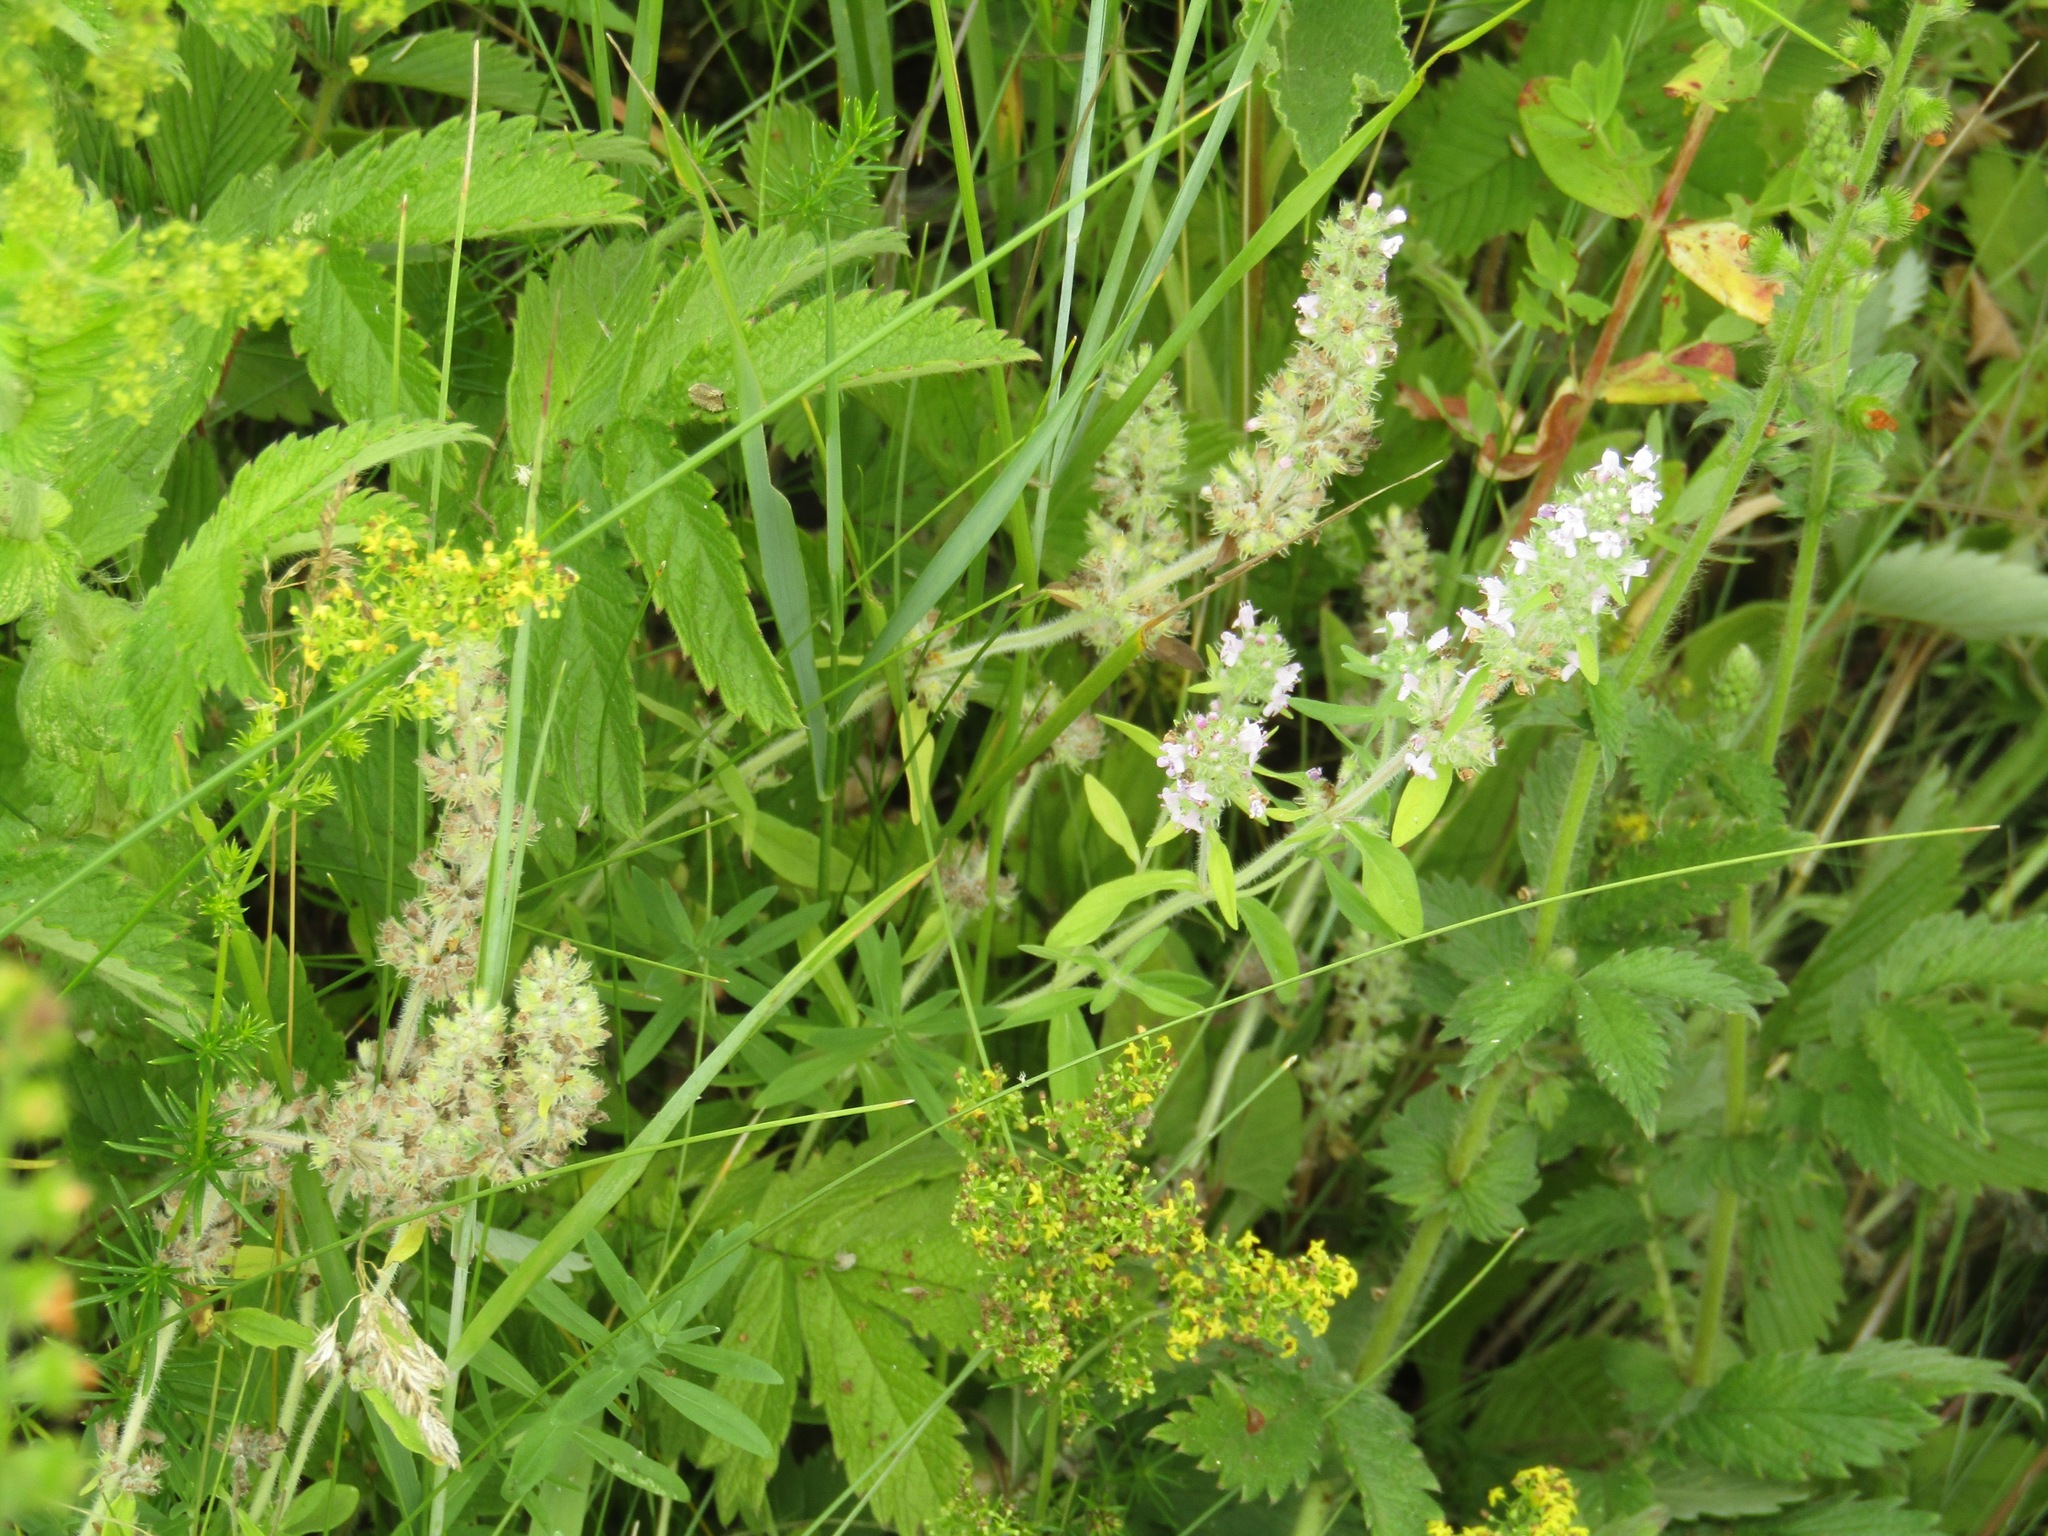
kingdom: Plantae
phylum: Tracheophyta
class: Magnoliopsida
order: Lamiales
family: Lamiaceae
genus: Thymus
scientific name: Thymus pannonicus
